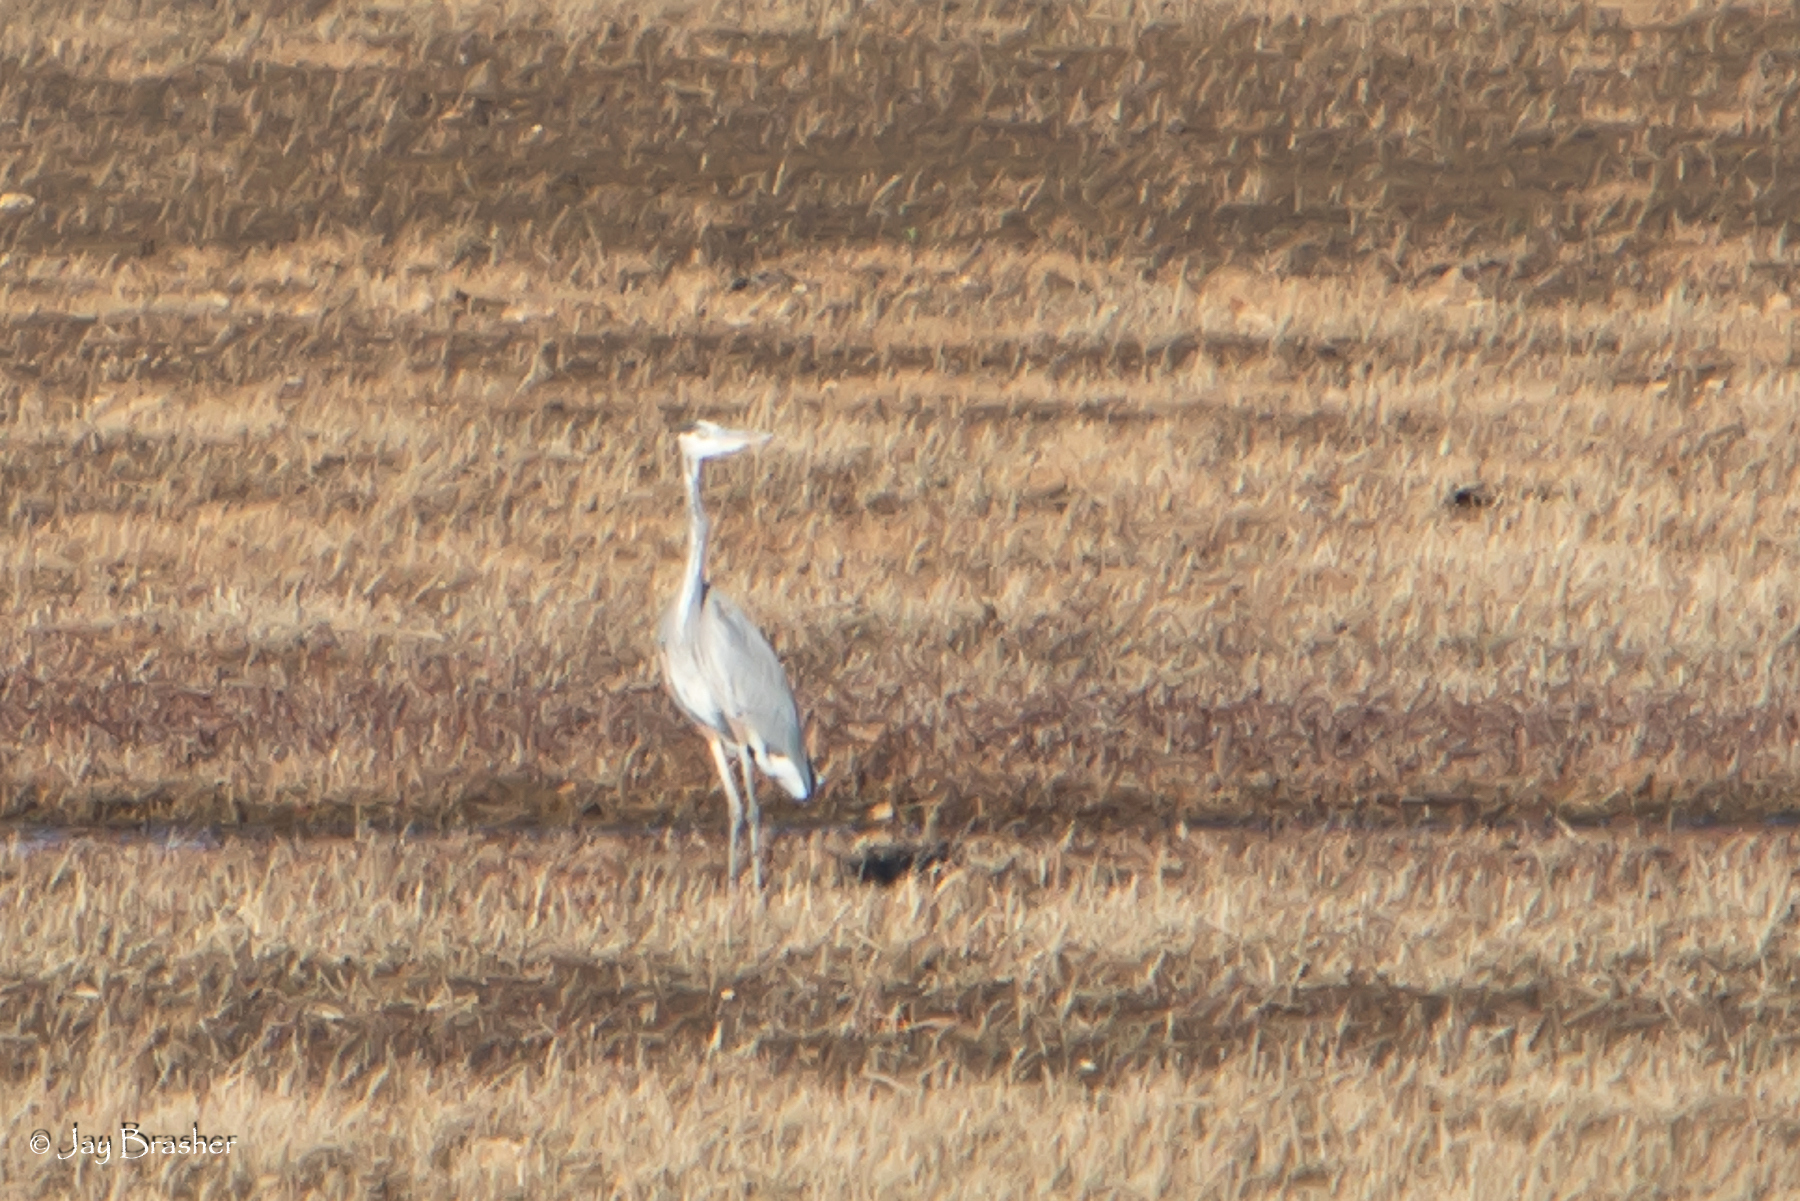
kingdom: Animalia
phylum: Chordata
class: Aves
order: Pelecaniformes
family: Ardeidae
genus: Ardea
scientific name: Ardea herodias
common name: Great blue heron
